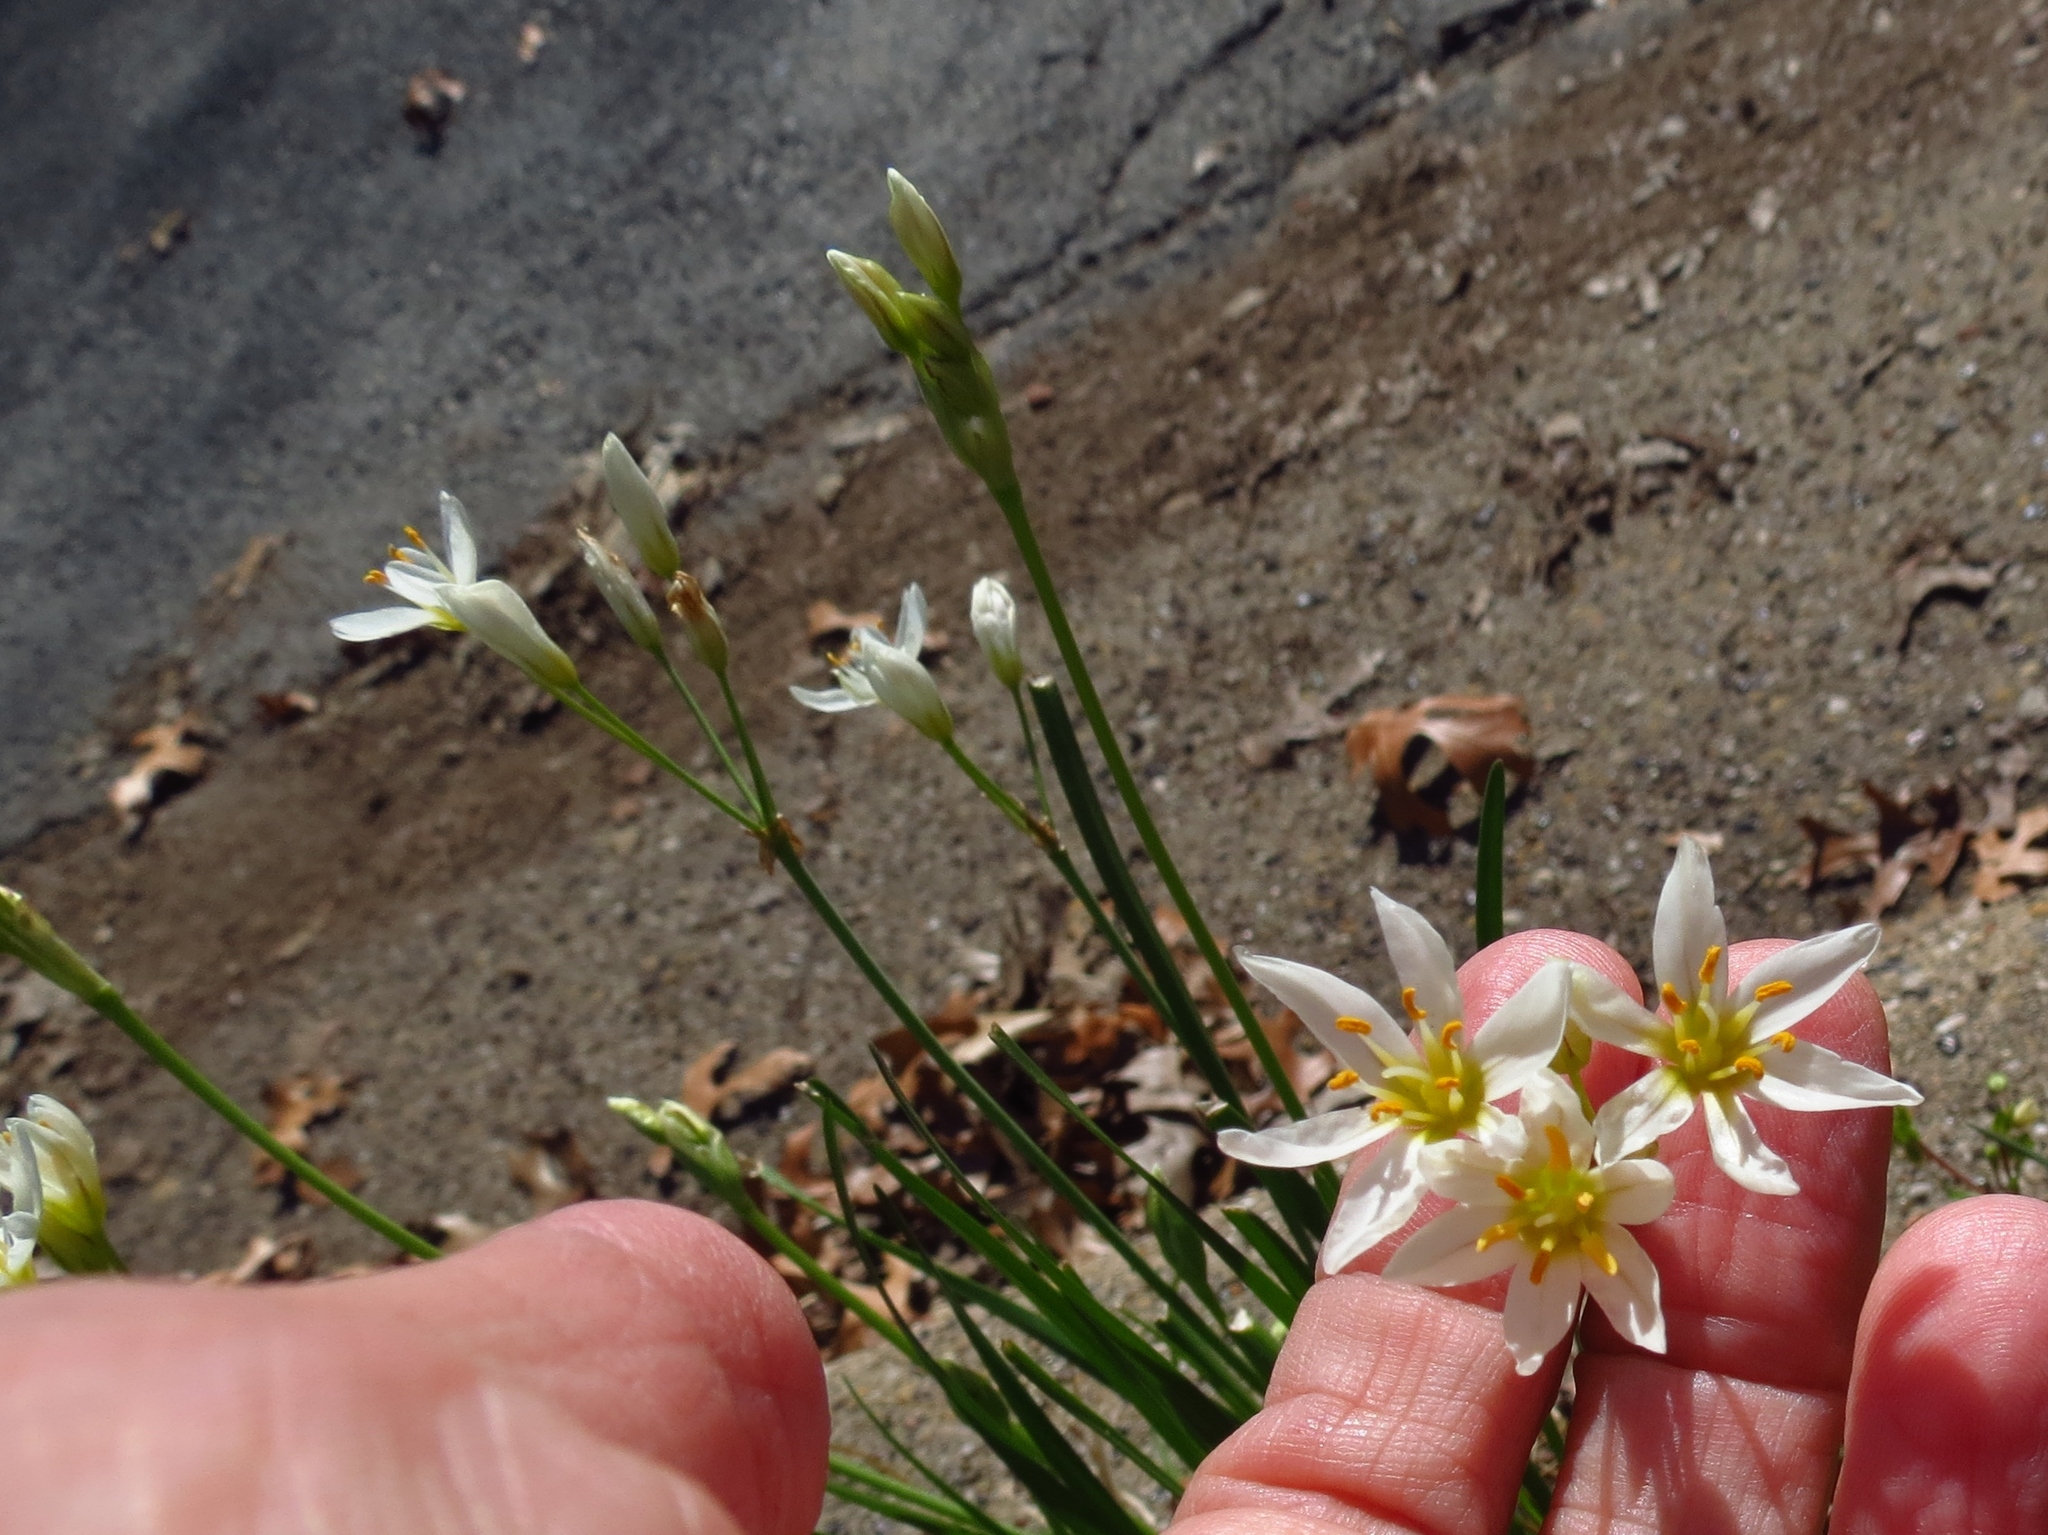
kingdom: Plantae
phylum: Tracheophyta
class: Liliopsida
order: Asparagales
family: Amaryllidaceae
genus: Nothoscordum
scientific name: Nothoscordum bivalve
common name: Crow-poison
